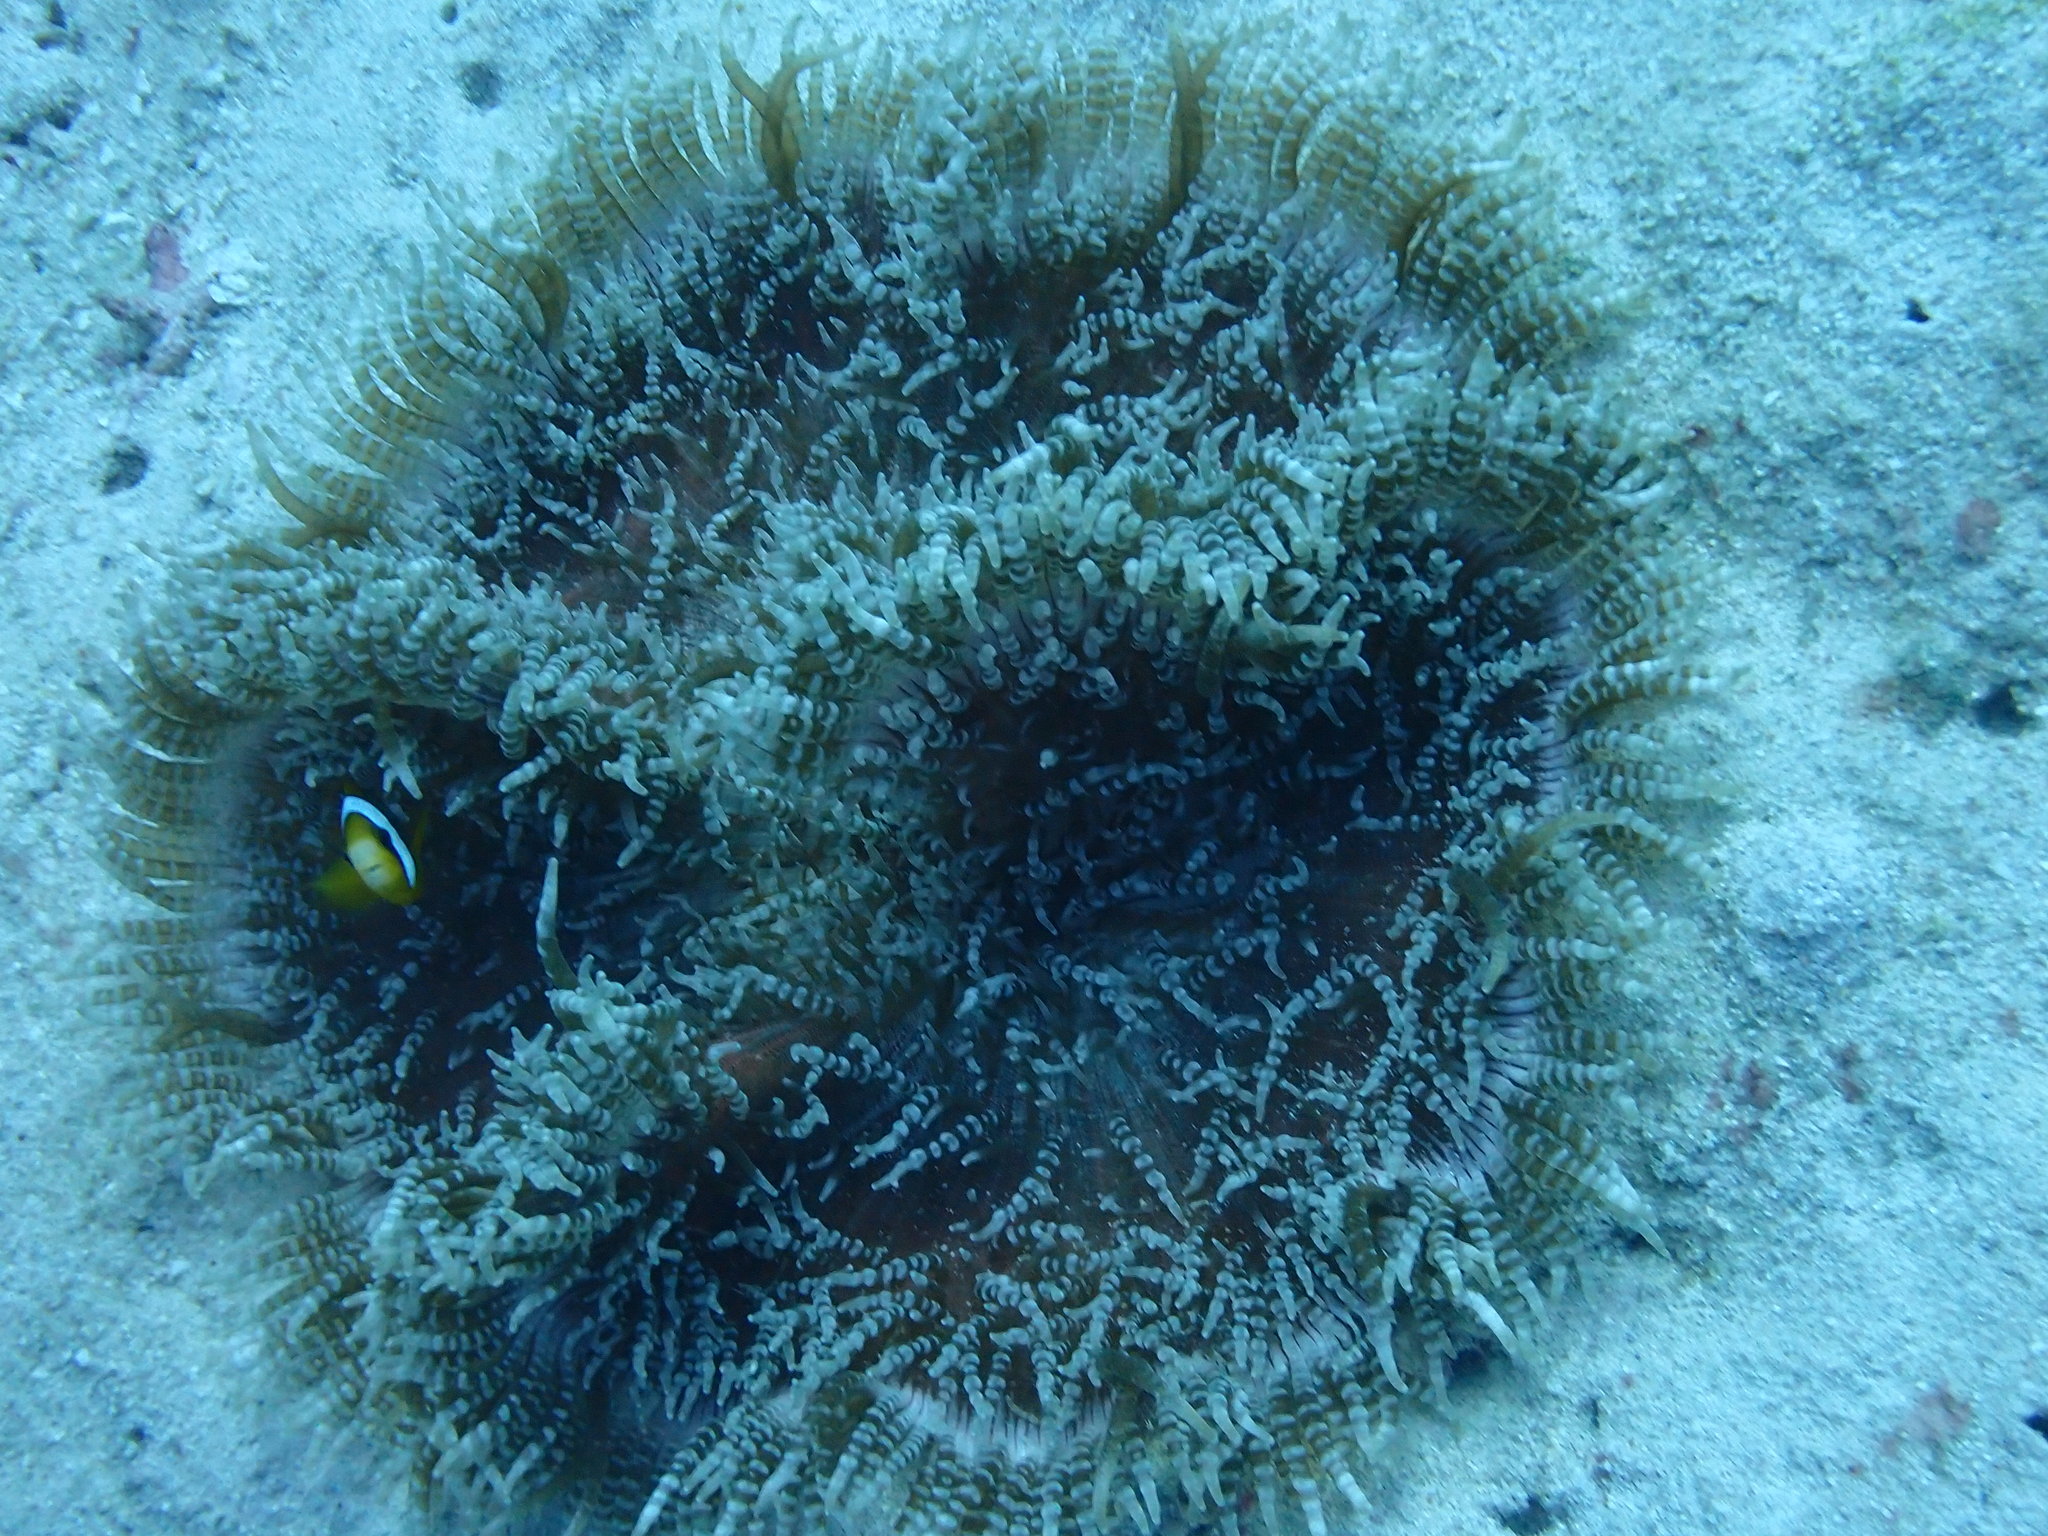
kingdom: Animalia
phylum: Cnidaria
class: Anthozoa
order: Actiniaria
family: Heteractidae
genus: Heteractis
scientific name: Heteractis aurora
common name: Beaded sea anemone
